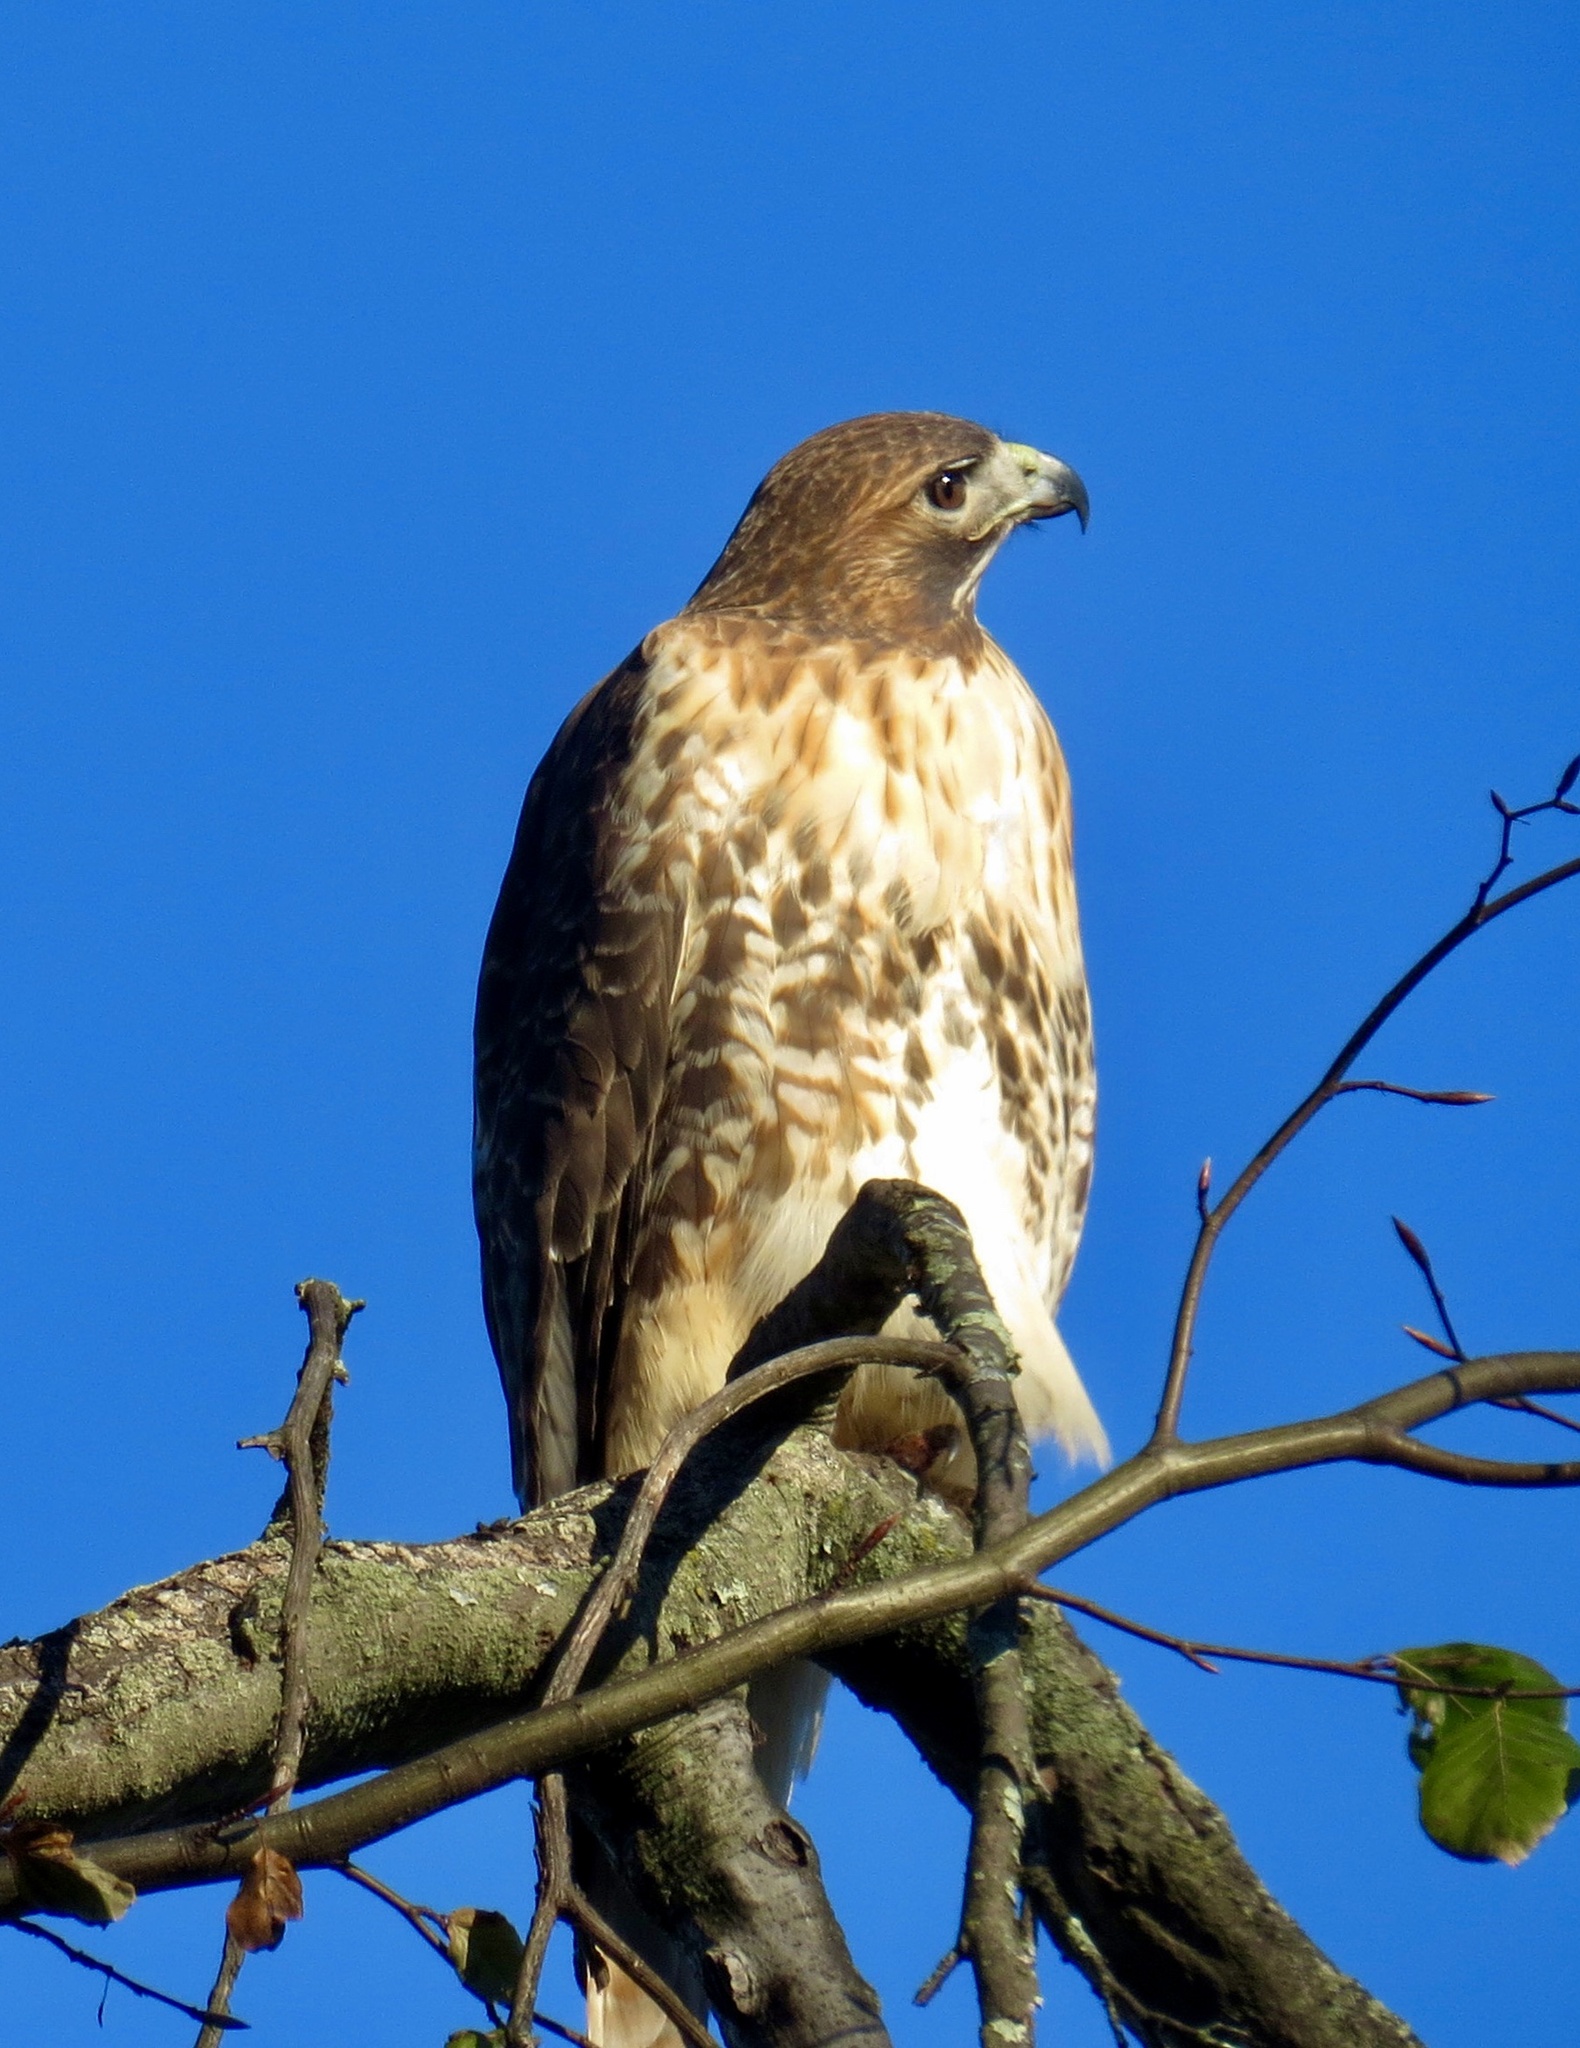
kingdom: Animalia
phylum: Chordata
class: Aves
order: Accipitriformes
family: Accipitridae
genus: Buteo
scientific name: Buteo jamaicensis
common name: Red-tailed hawk
